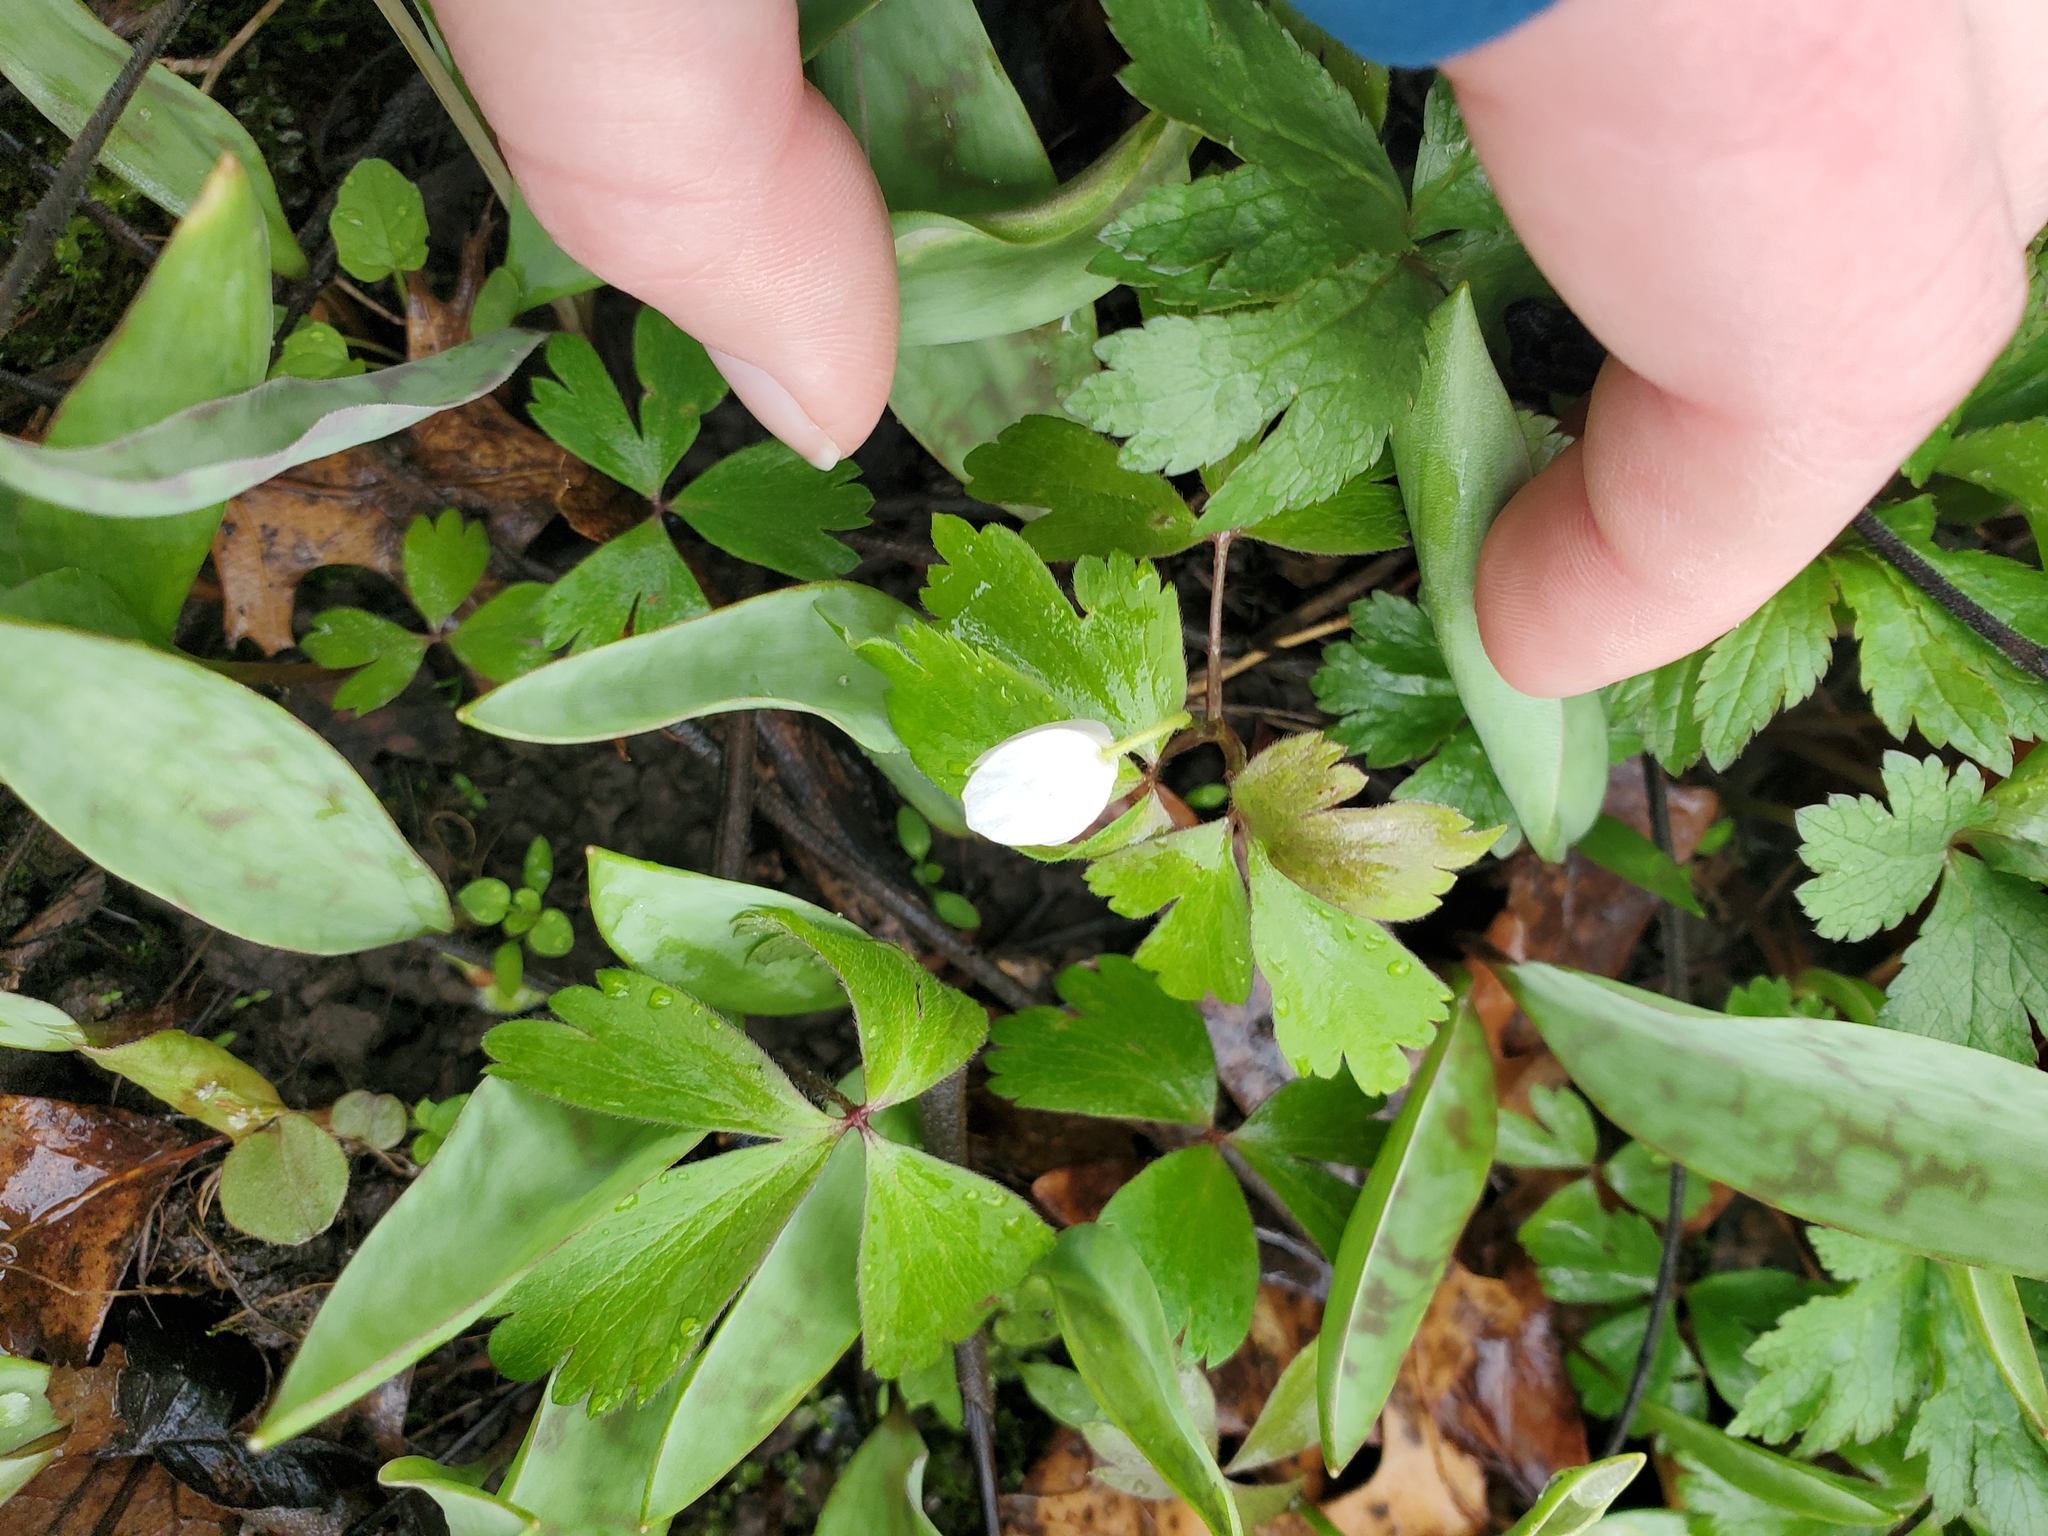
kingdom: Plantae
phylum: Tracheophyta
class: Magnoliopsida
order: Ranunculales
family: Ranunculaceae
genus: Anemone
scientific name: Anemone quinquefolia
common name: Wood anemone
